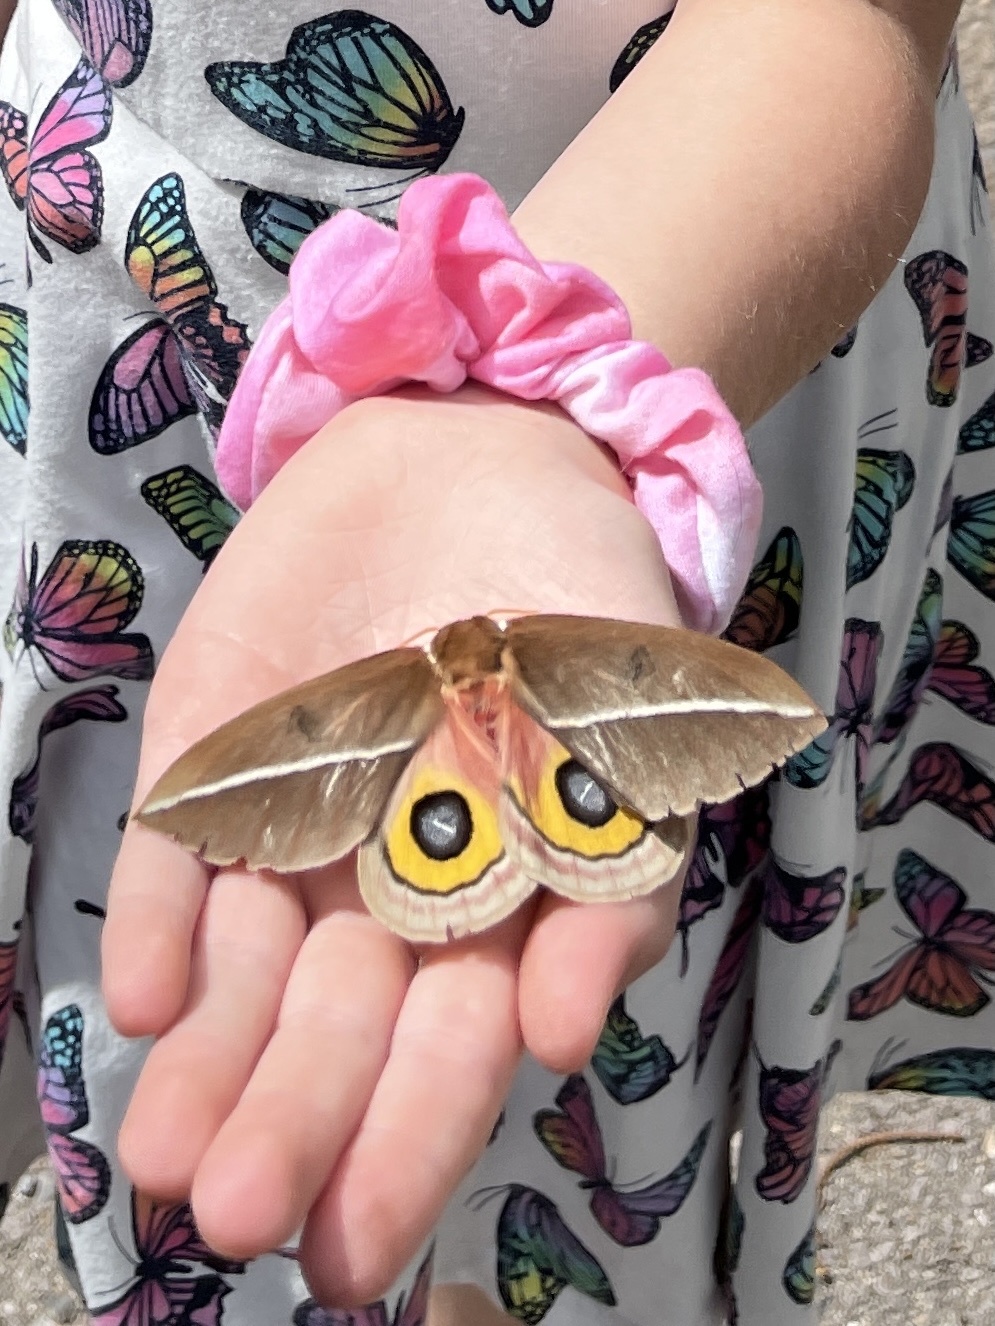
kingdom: Animalia
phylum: Arthropoda
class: Insecta
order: Lepidoptera
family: Saturniidae
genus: Automeris
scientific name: Automeris zephyria
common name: Zephyr eyed silkmoth
